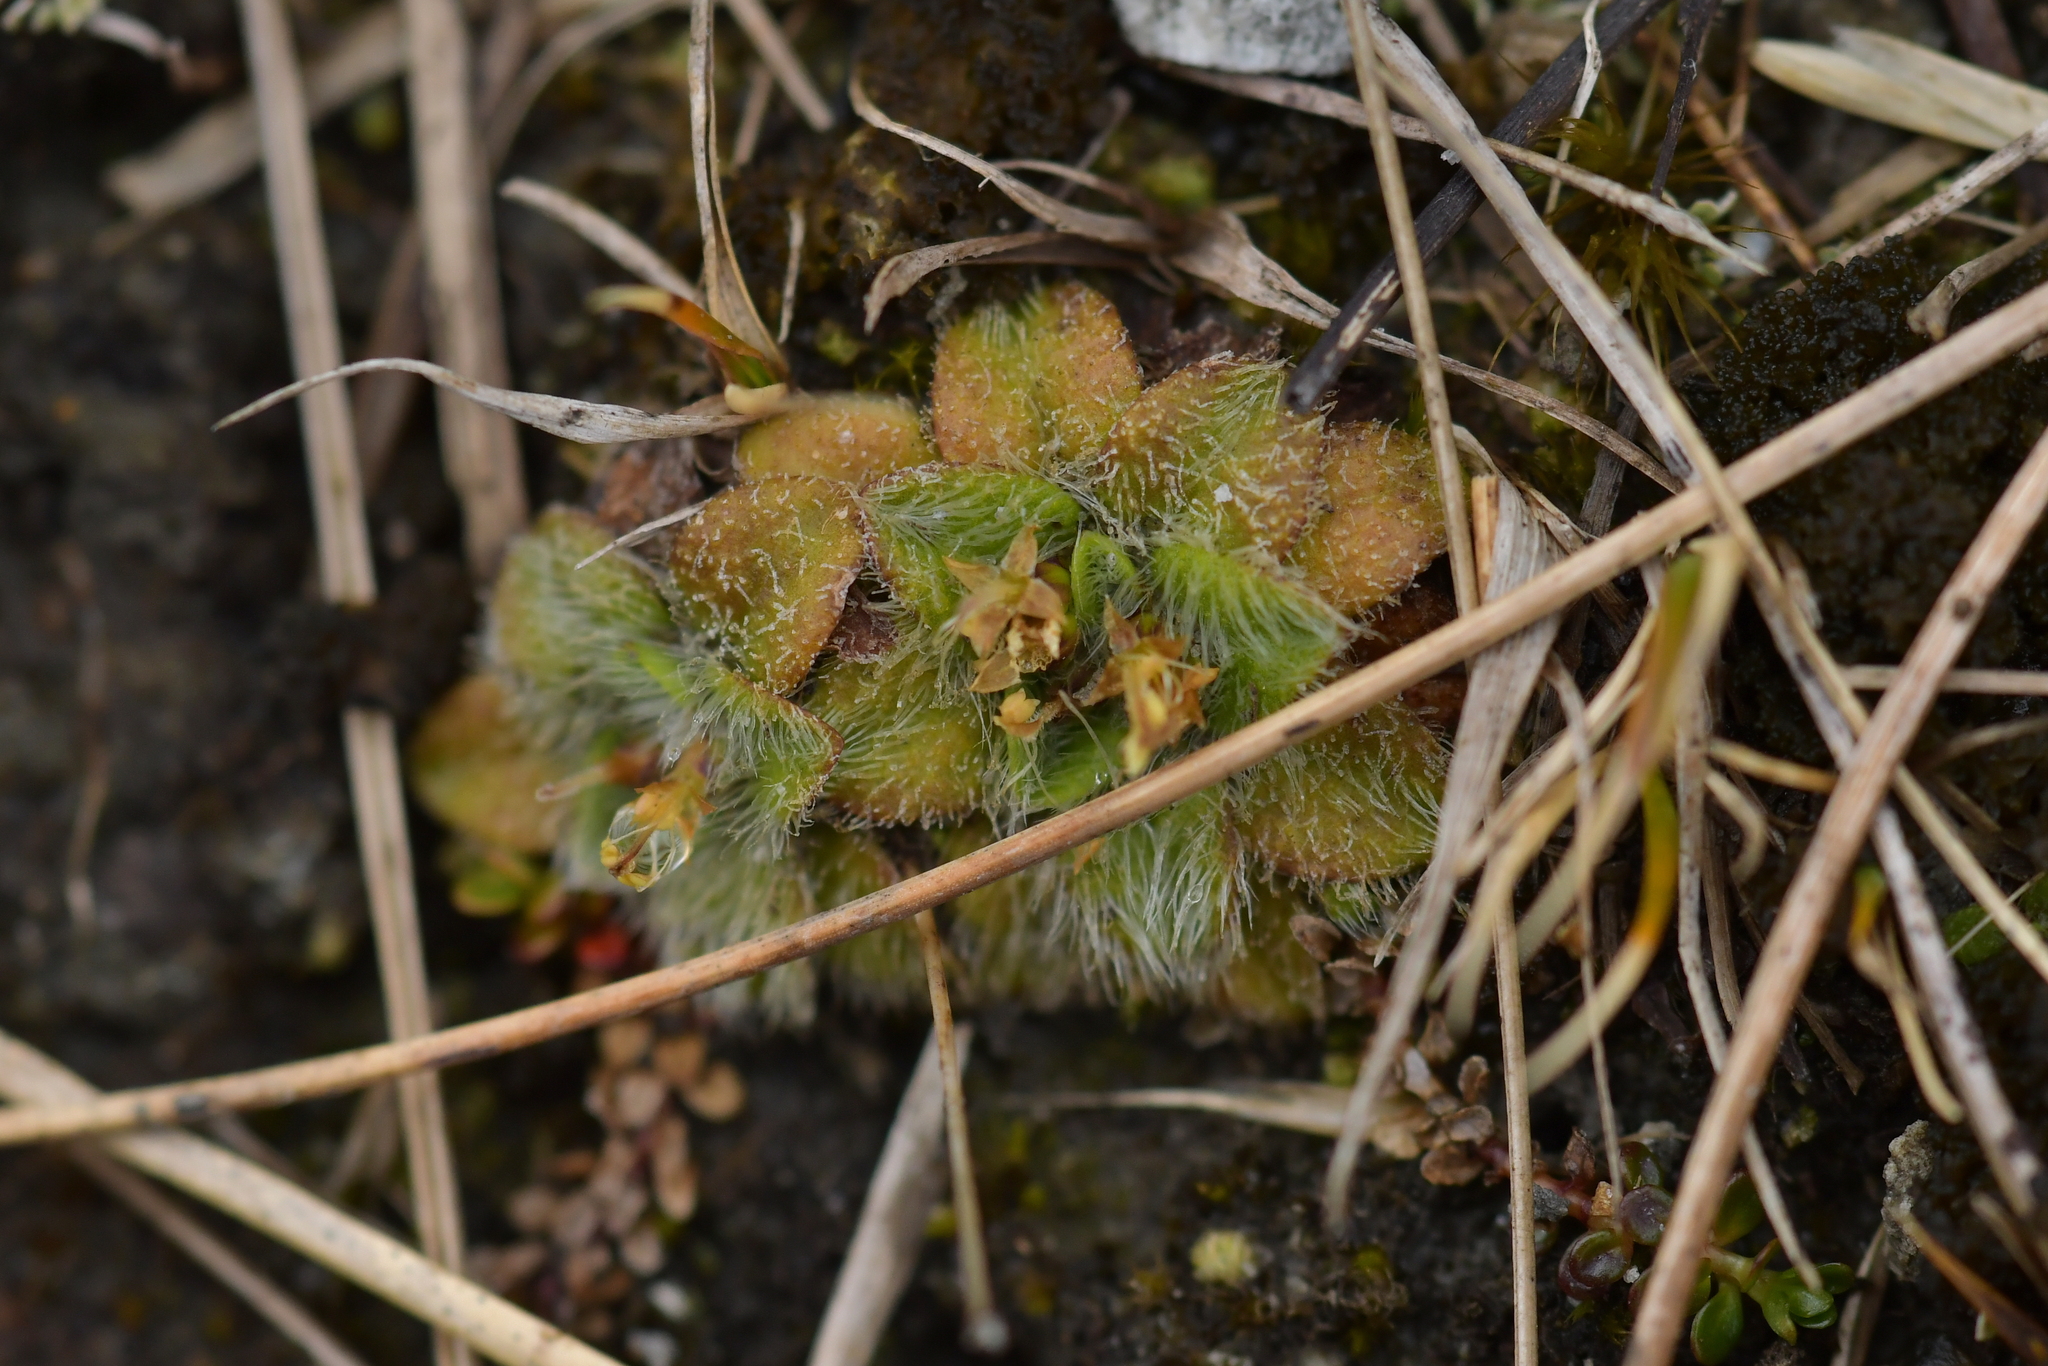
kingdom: Plantae
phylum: Tracheophyta
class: Magnoliopsida
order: Lamiales
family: Plantaginaceae
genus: Plantago
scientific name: Plantago lanigera
